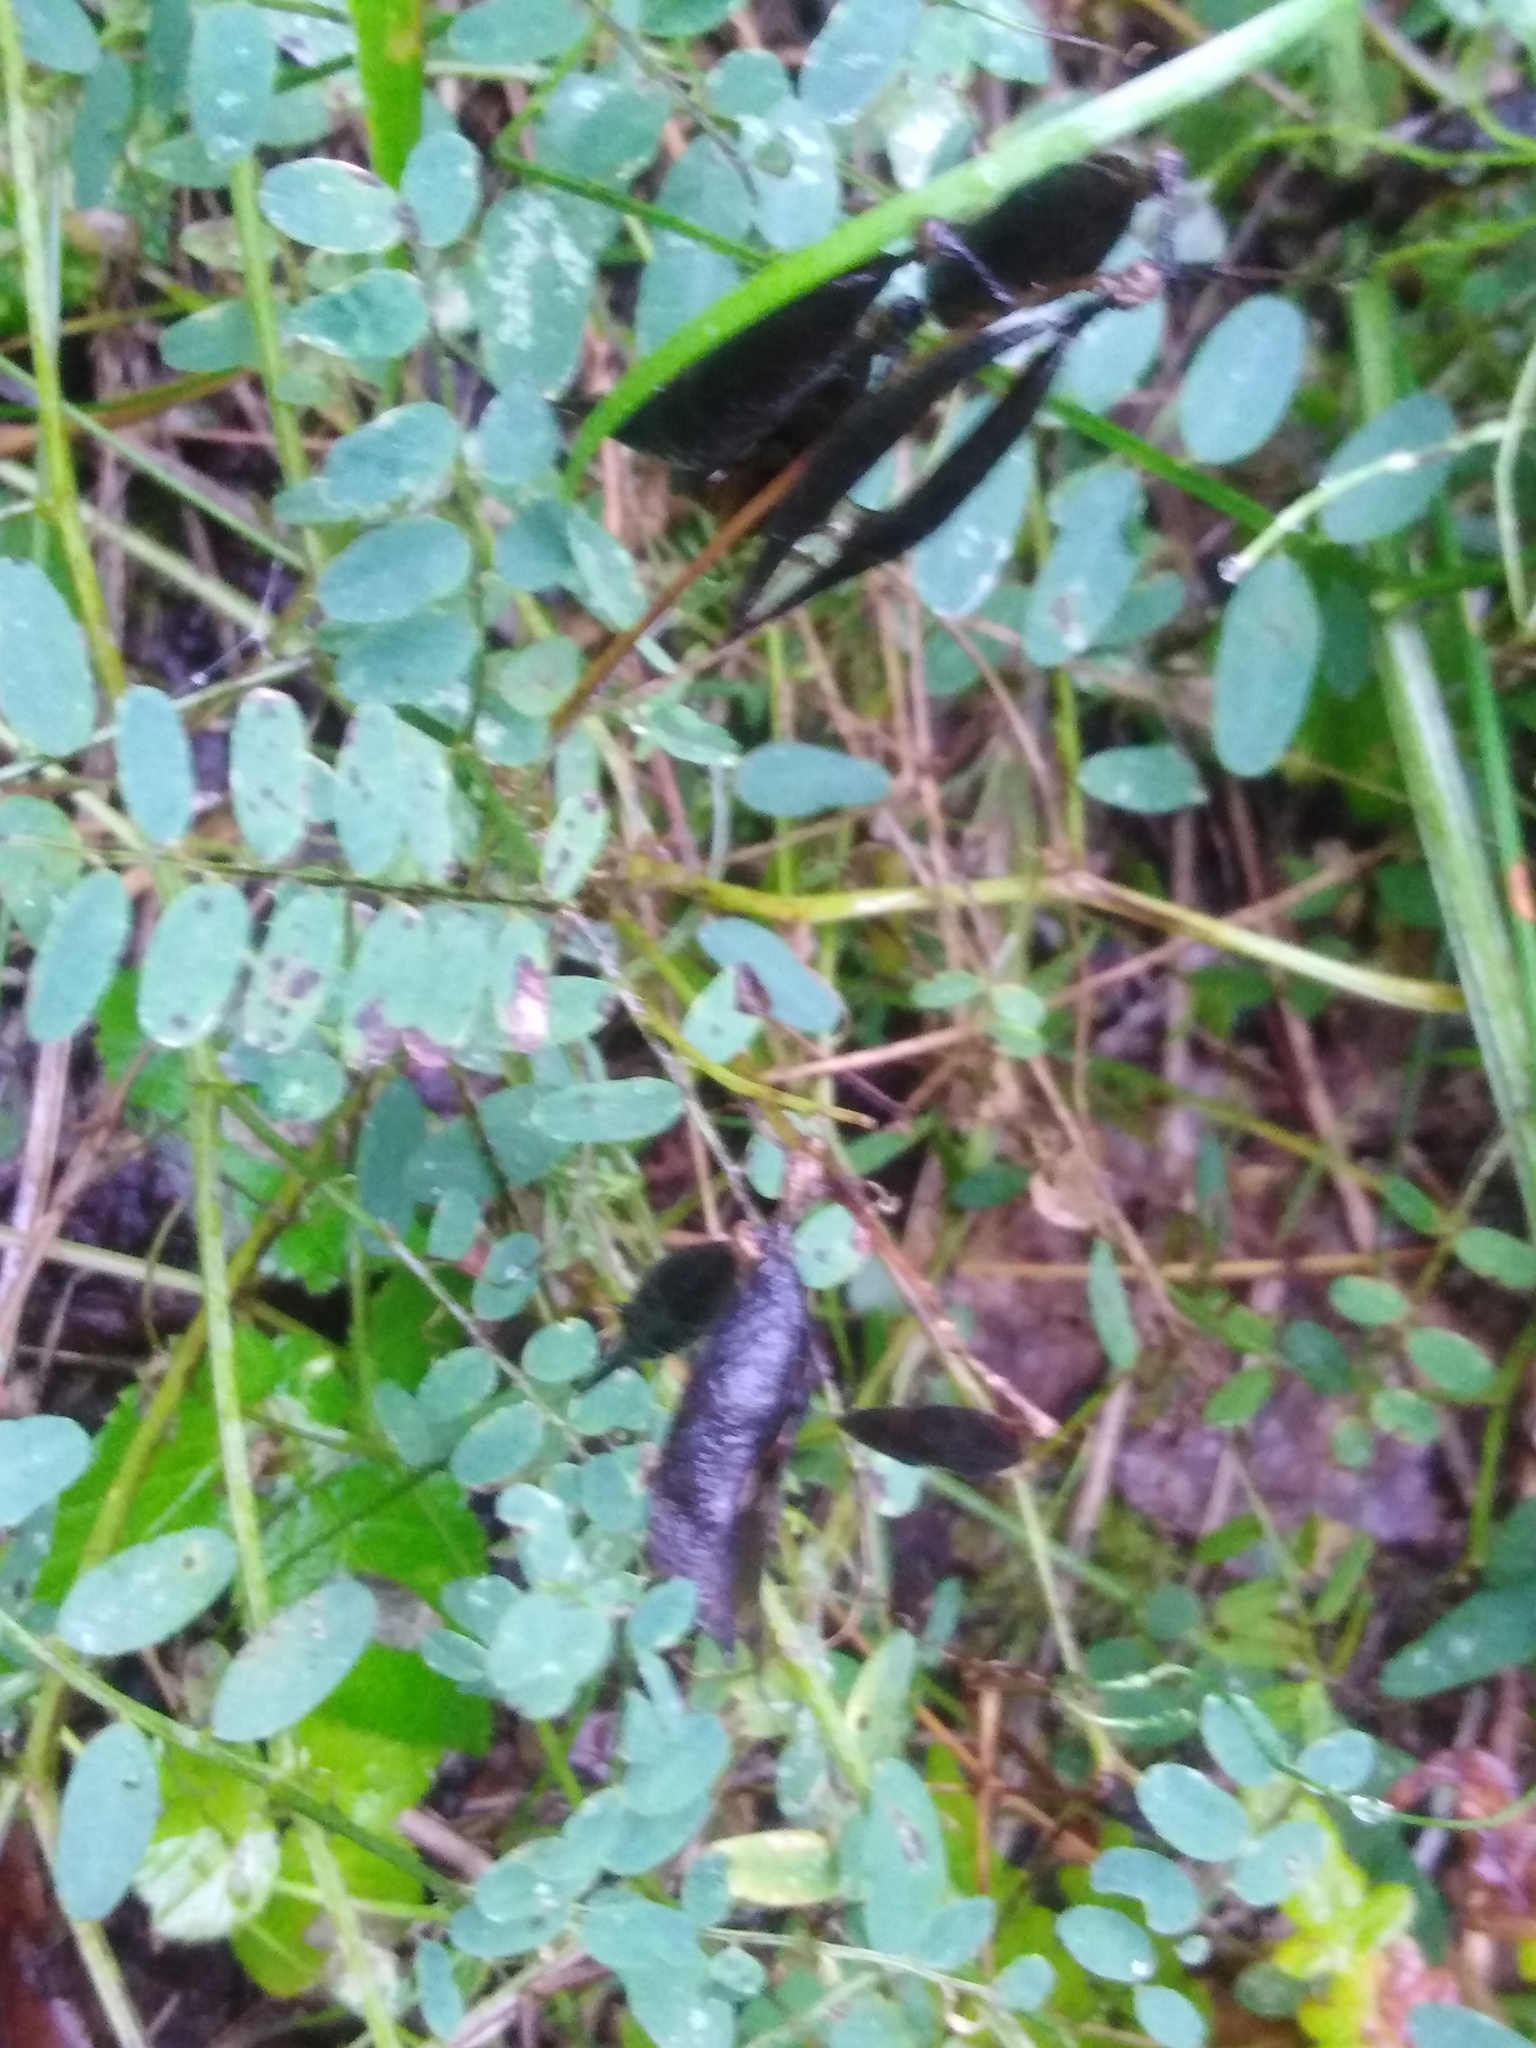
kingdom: Plantae
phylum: Tracheophyta
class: Magnoliopsida
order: Fabales
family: Fabaceae
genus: Vicia
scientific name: Vicia sylvatica
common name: Wood vetch
